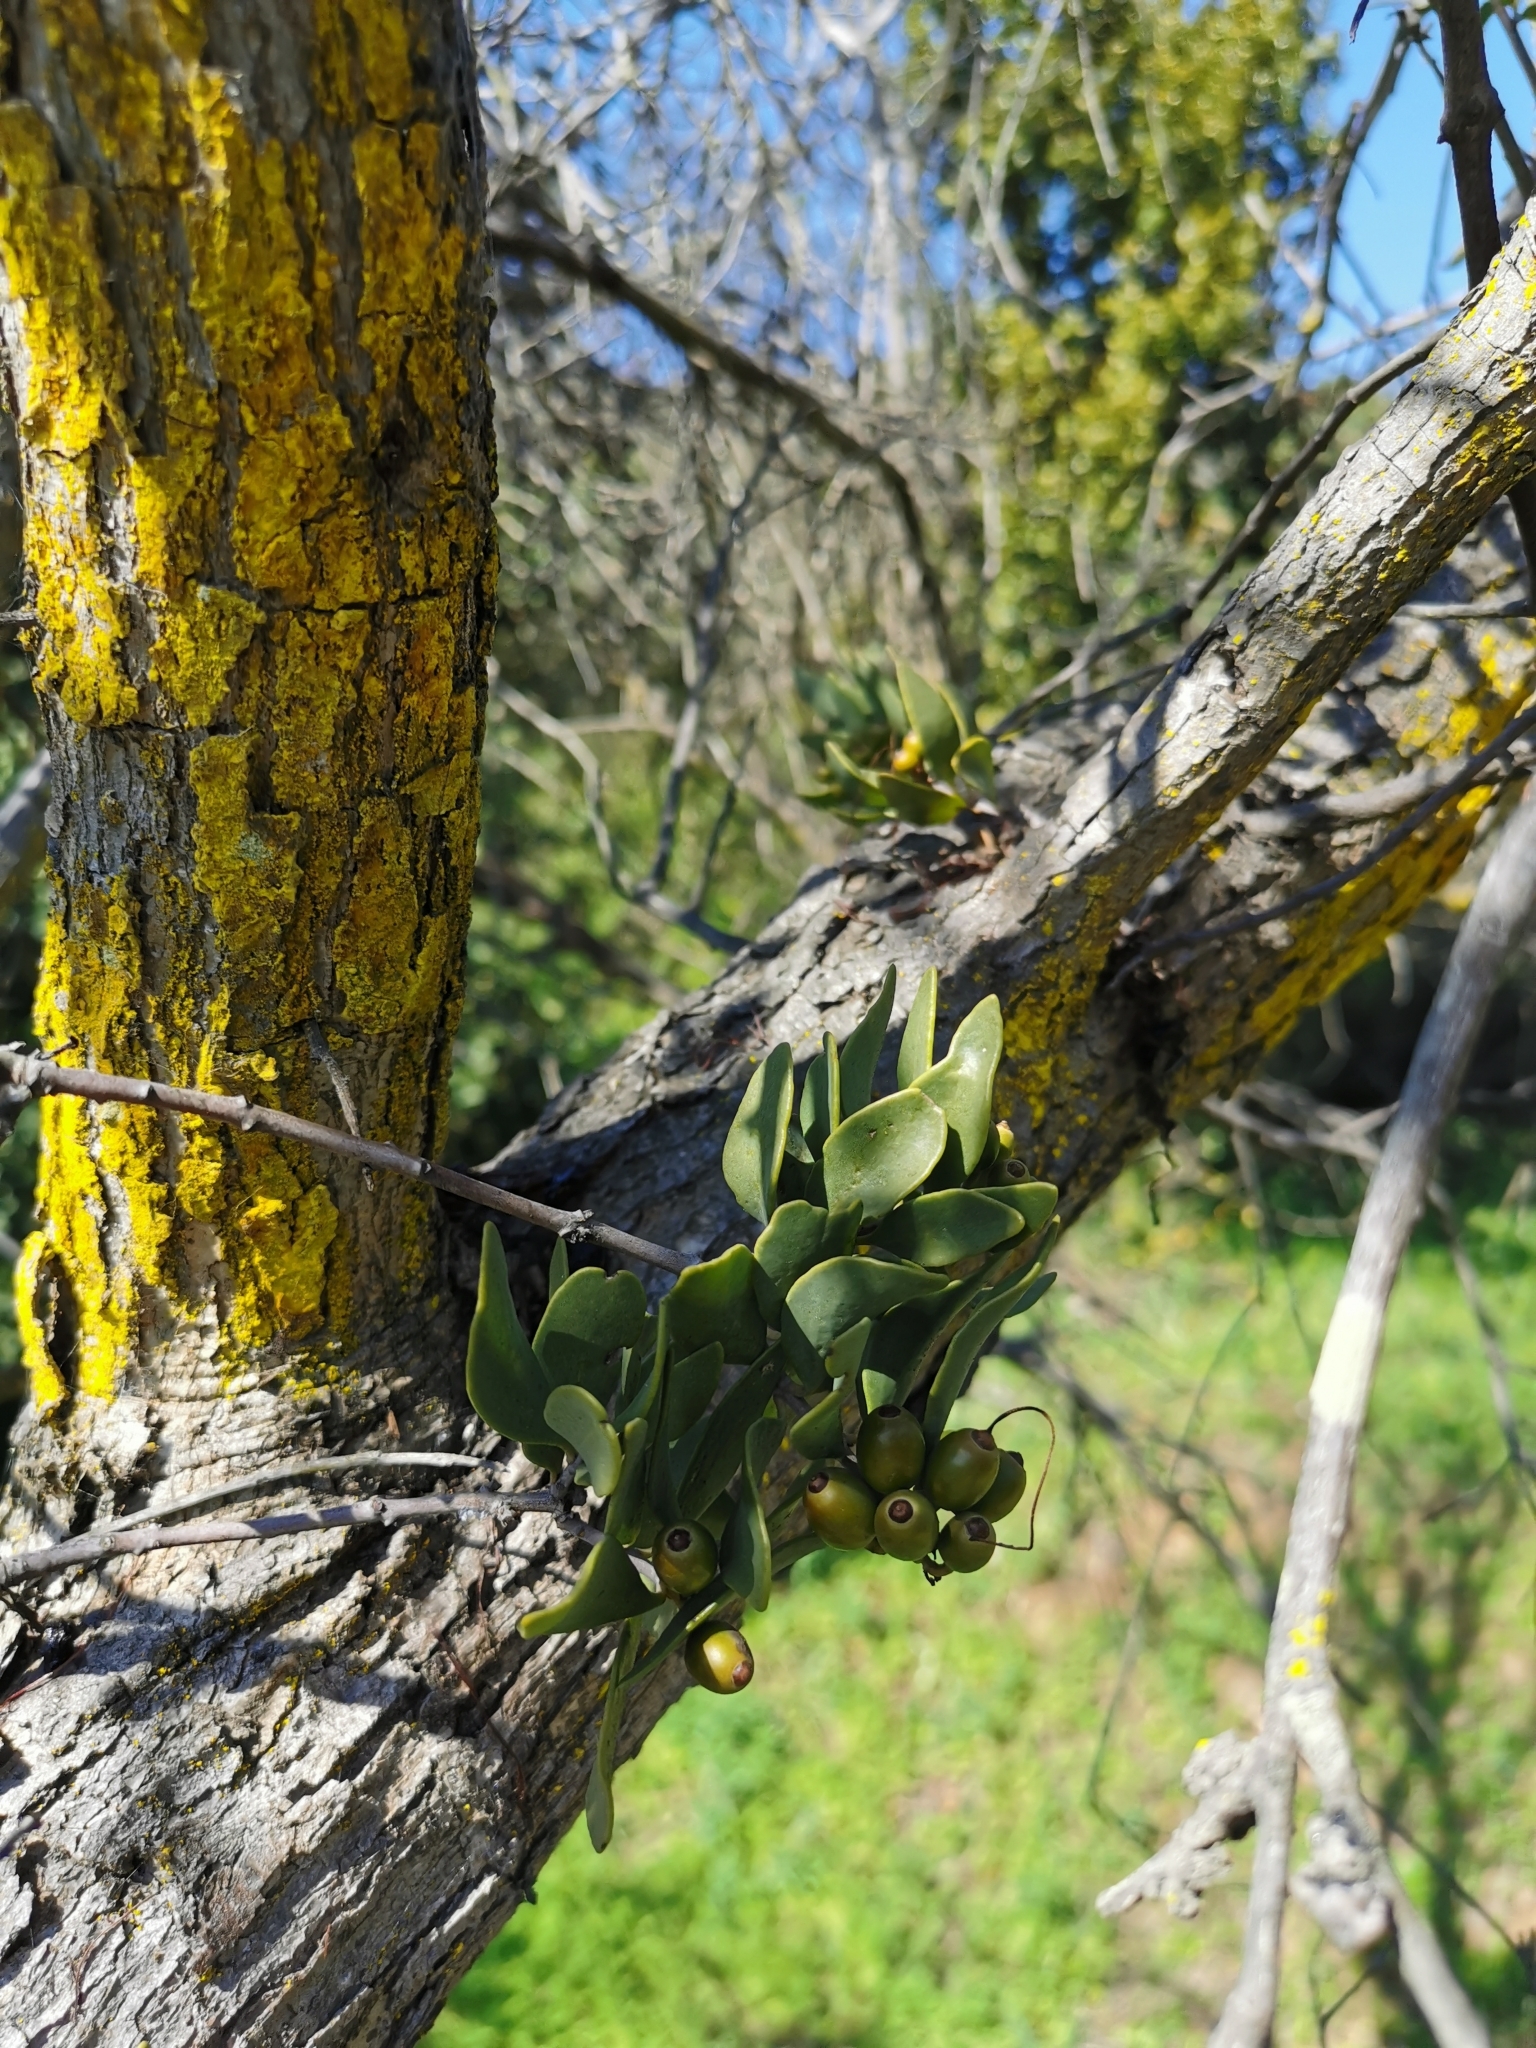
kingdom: Plantae
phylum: Tracheophyta
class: Magnoliopsida
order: Santalales
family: Loranthaceae
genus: Tristerix
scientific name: Tristerix verticillatus
